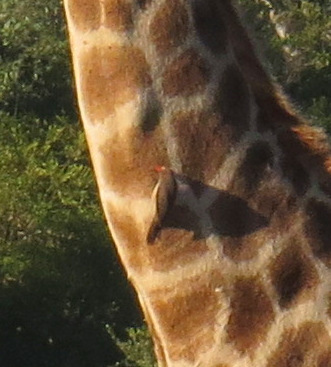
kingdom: Animalia
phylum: Chordata
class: Aves
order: Passeriformes
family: Buphagidae
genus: Buphagus
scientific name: Buphagus erythrorhynchus
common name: Red-billed oxpecker
